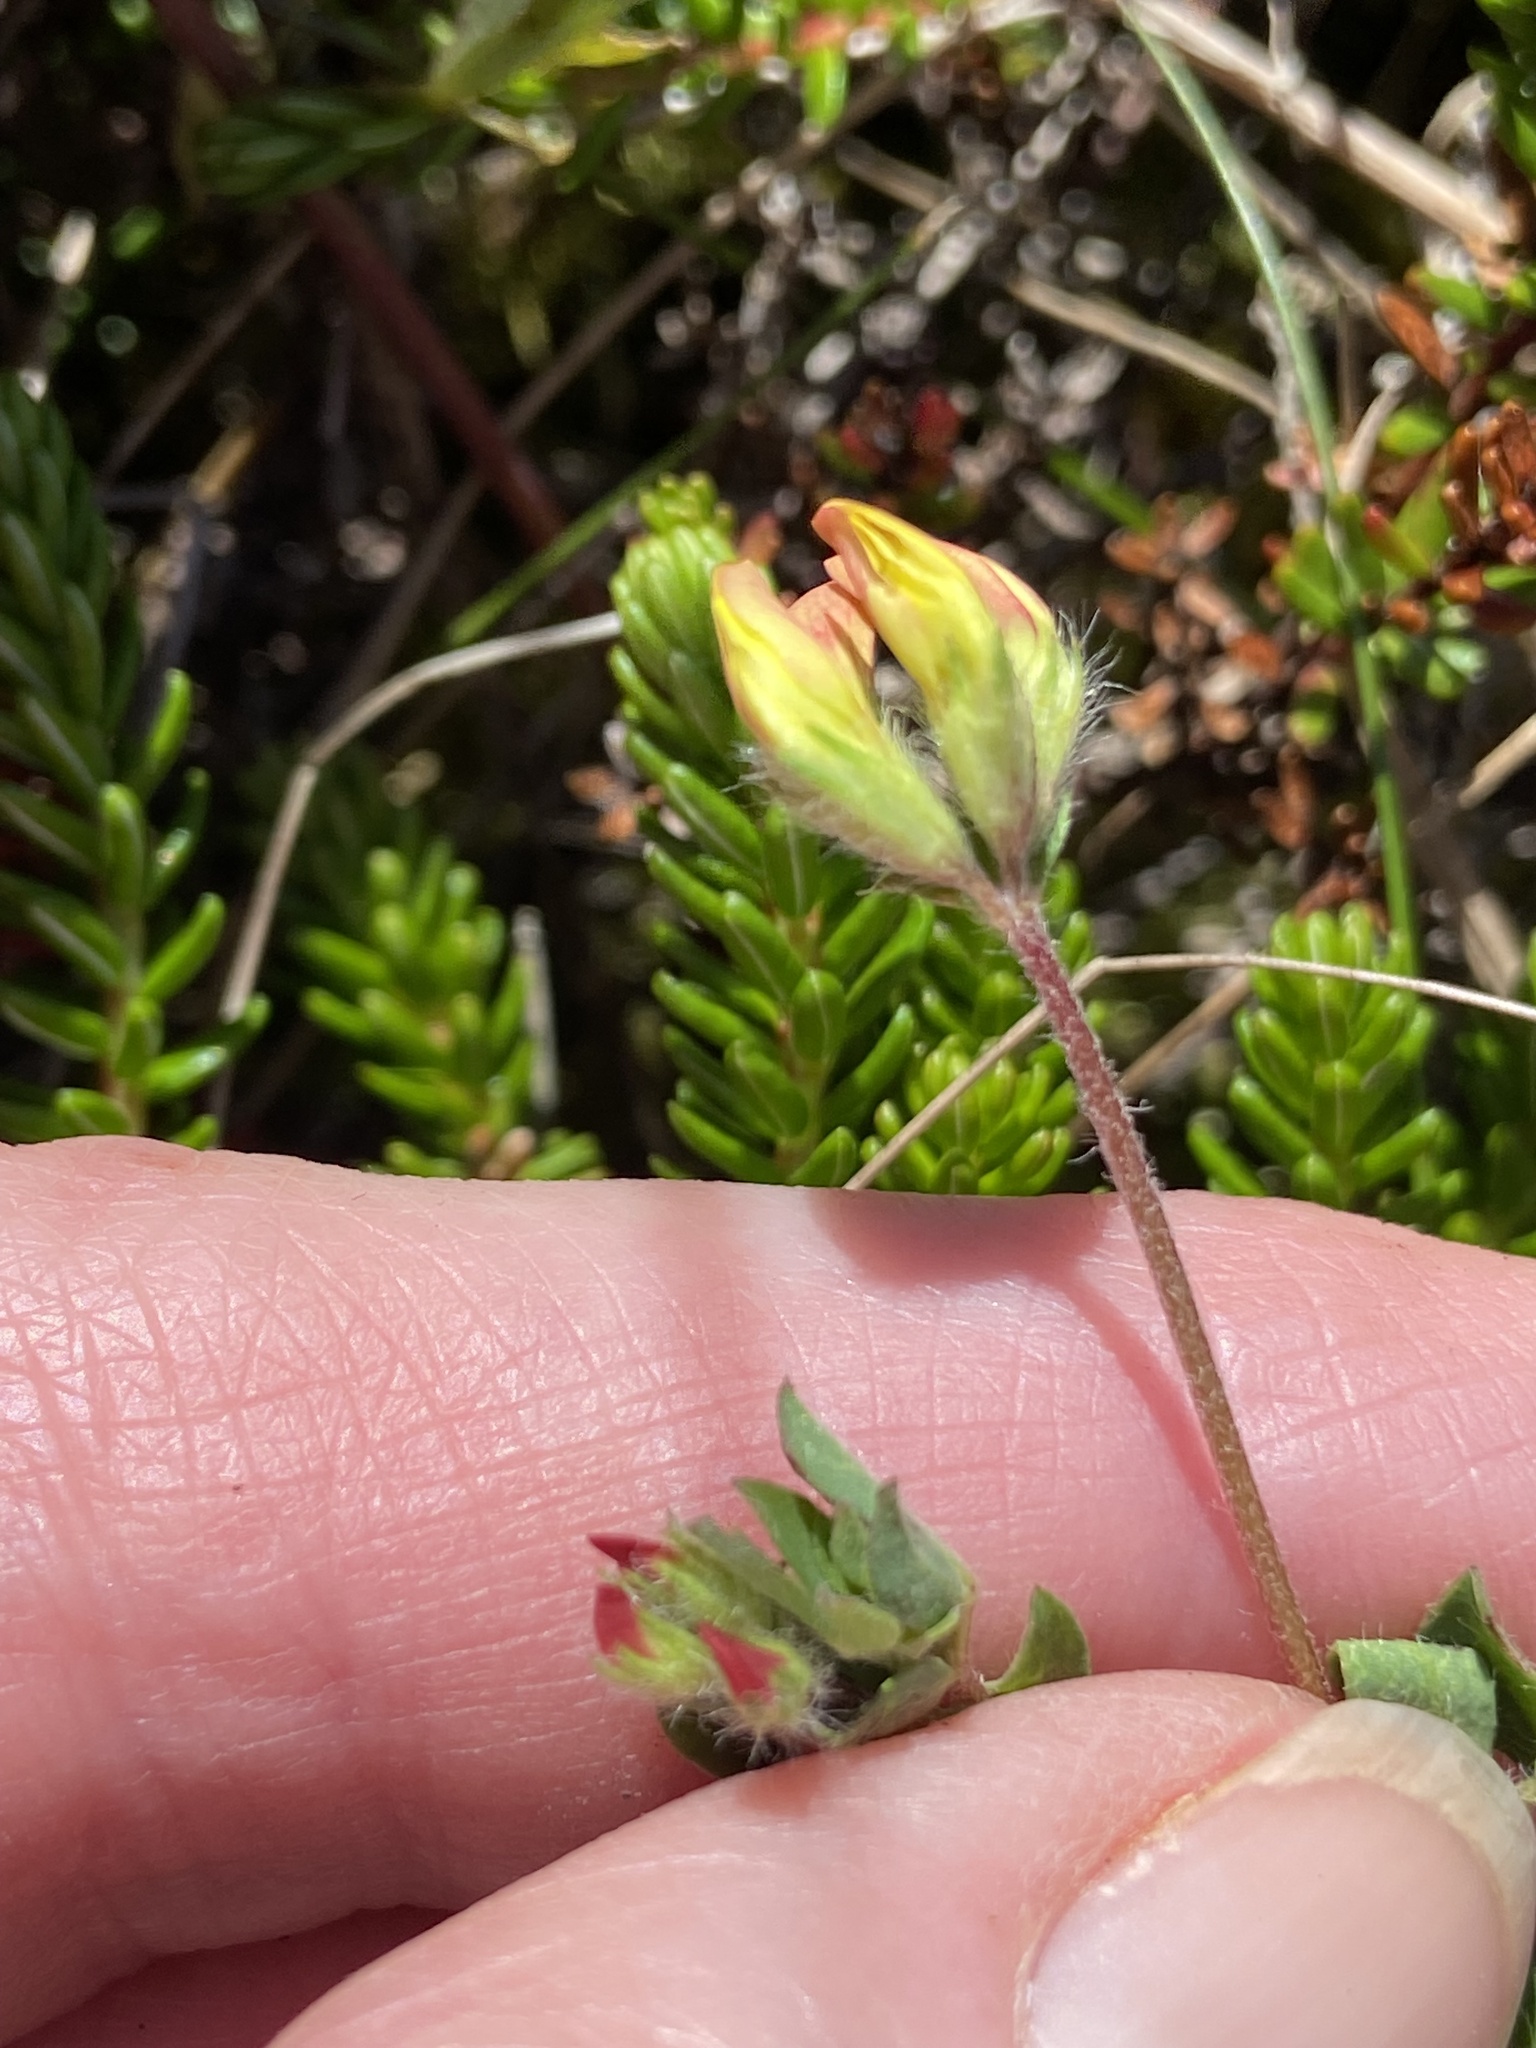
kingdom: Plantae
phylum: Tracheophyta
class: Magnoliopsida
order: Fabales
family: Fabaceae
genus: Lotus
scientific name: Lotus corniculatus
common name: Common bird's-foot-trefoil
